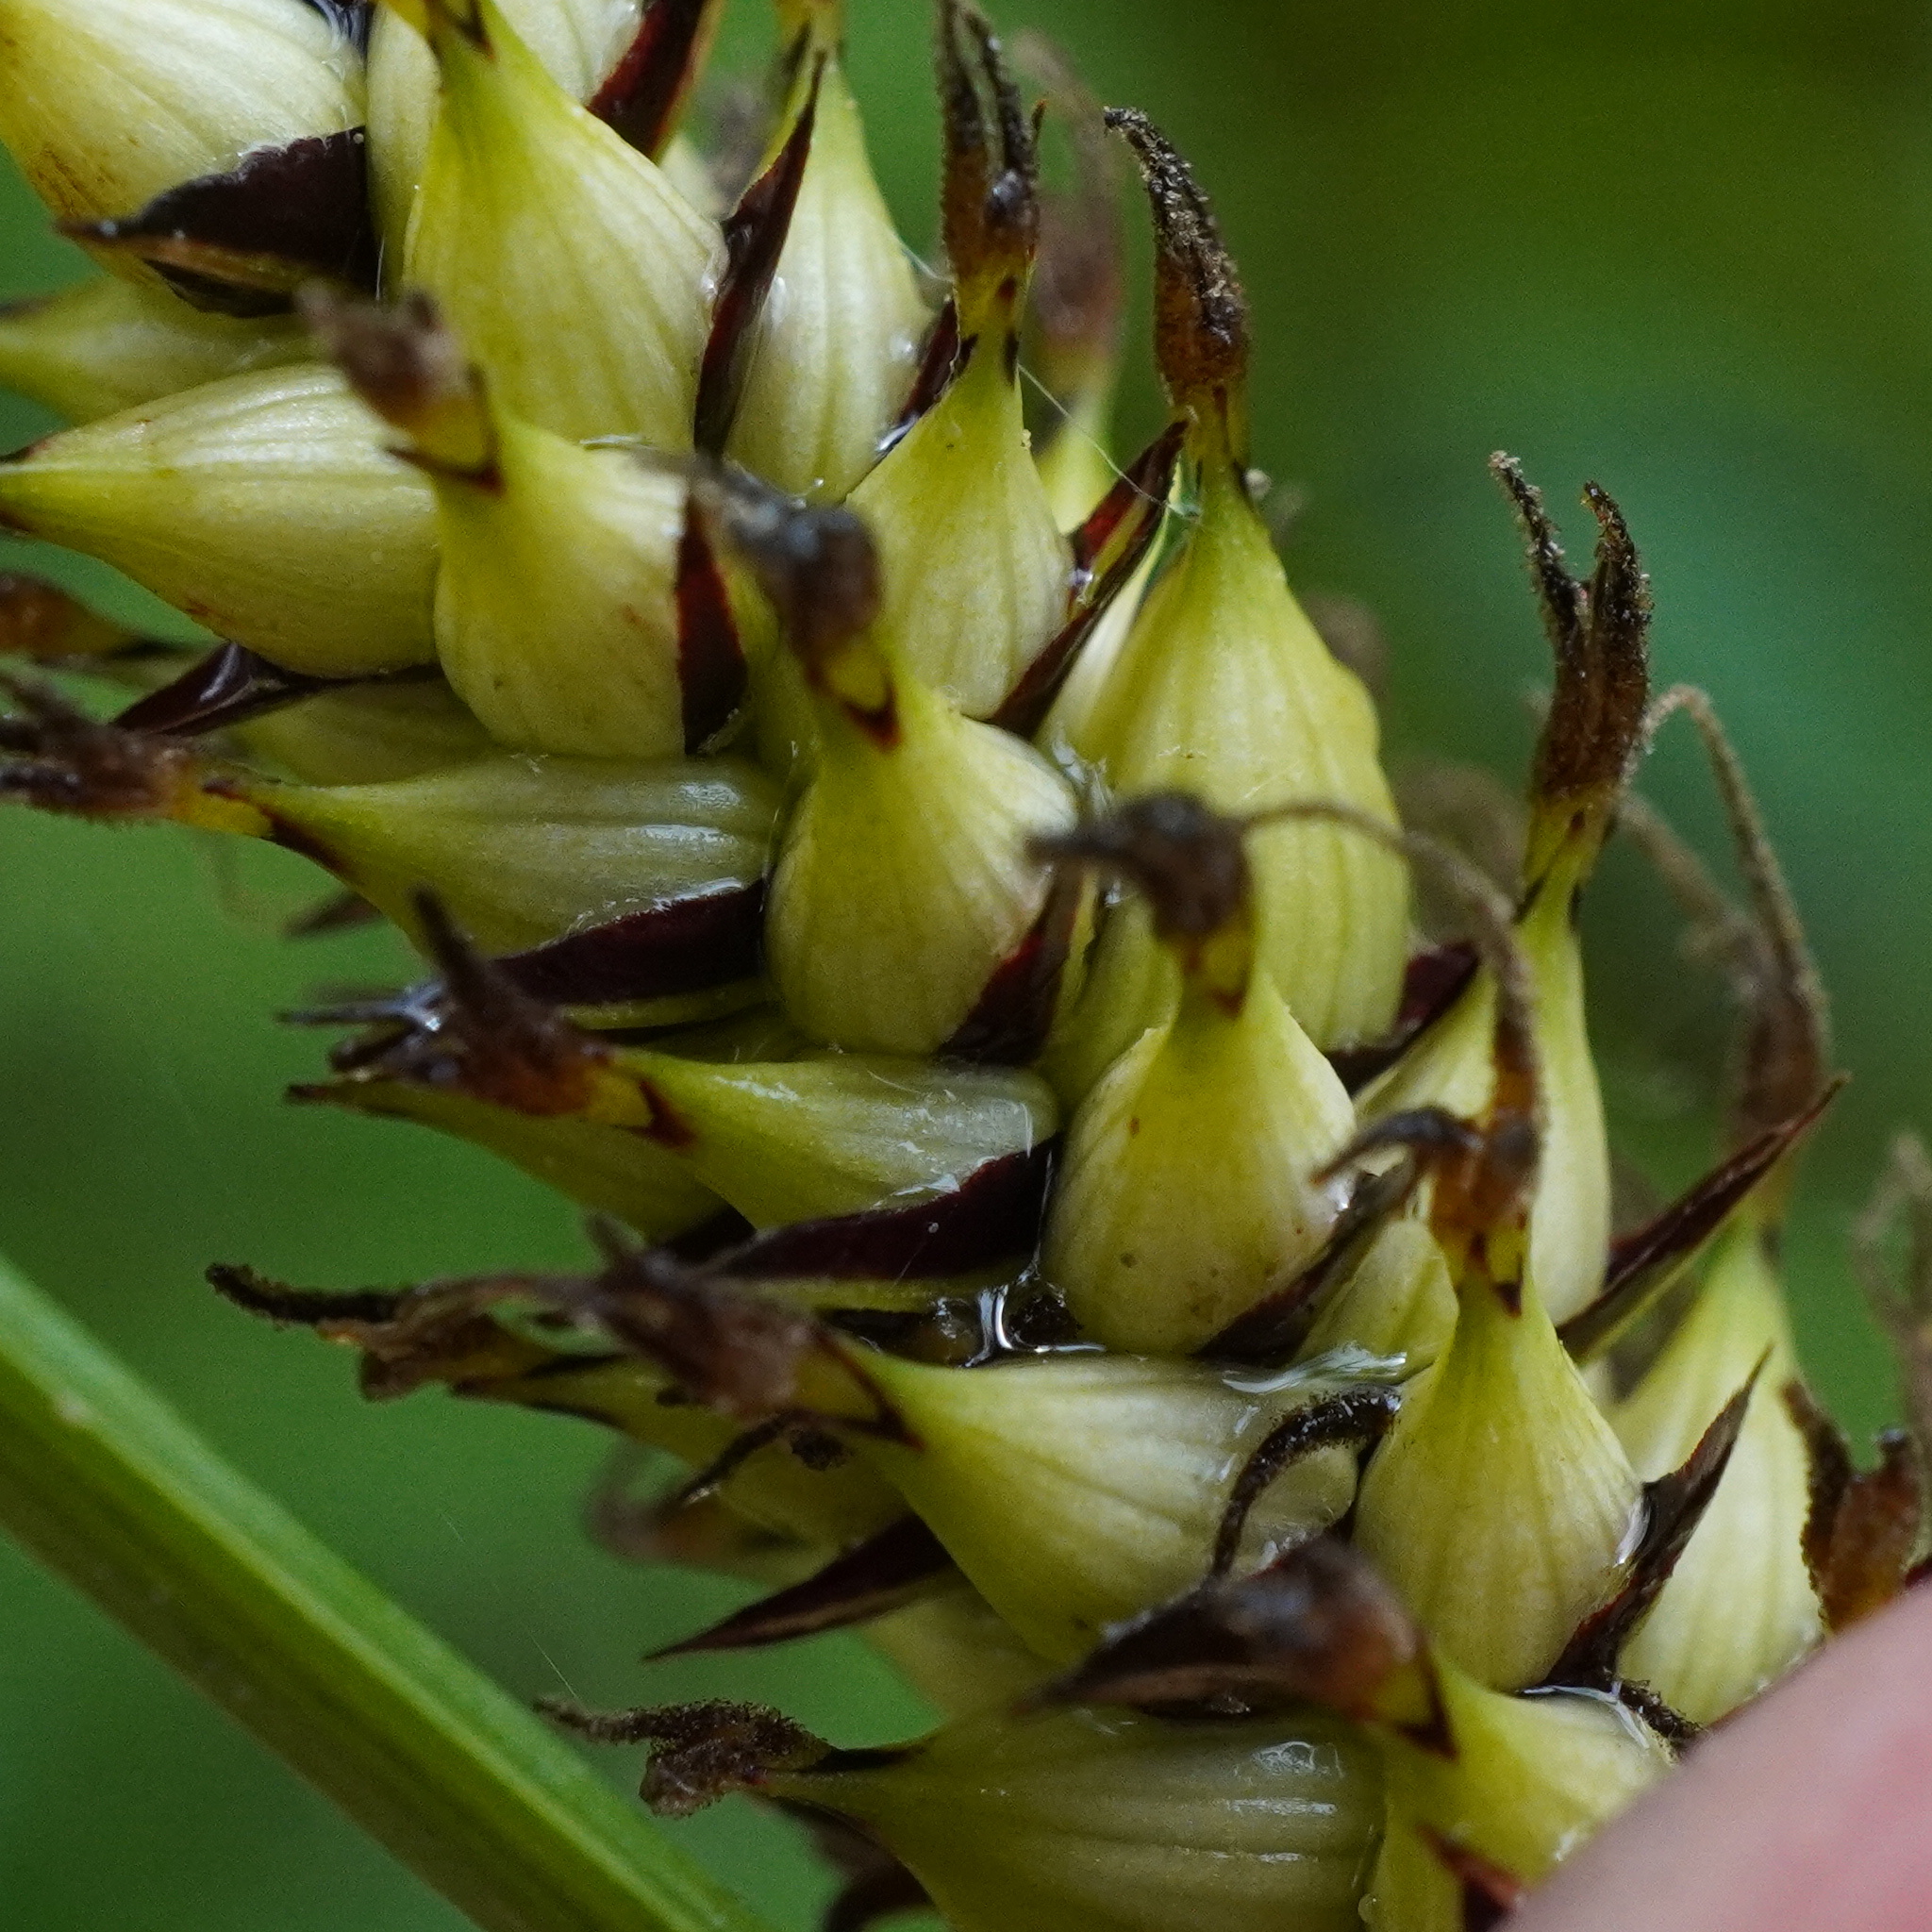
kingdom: Plantae
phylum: Tracheophyta
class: Liliopsida
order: Poales
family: Cyperaceae
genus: Carex
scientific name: Carex melanostachya
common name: Black-spiked sedge
